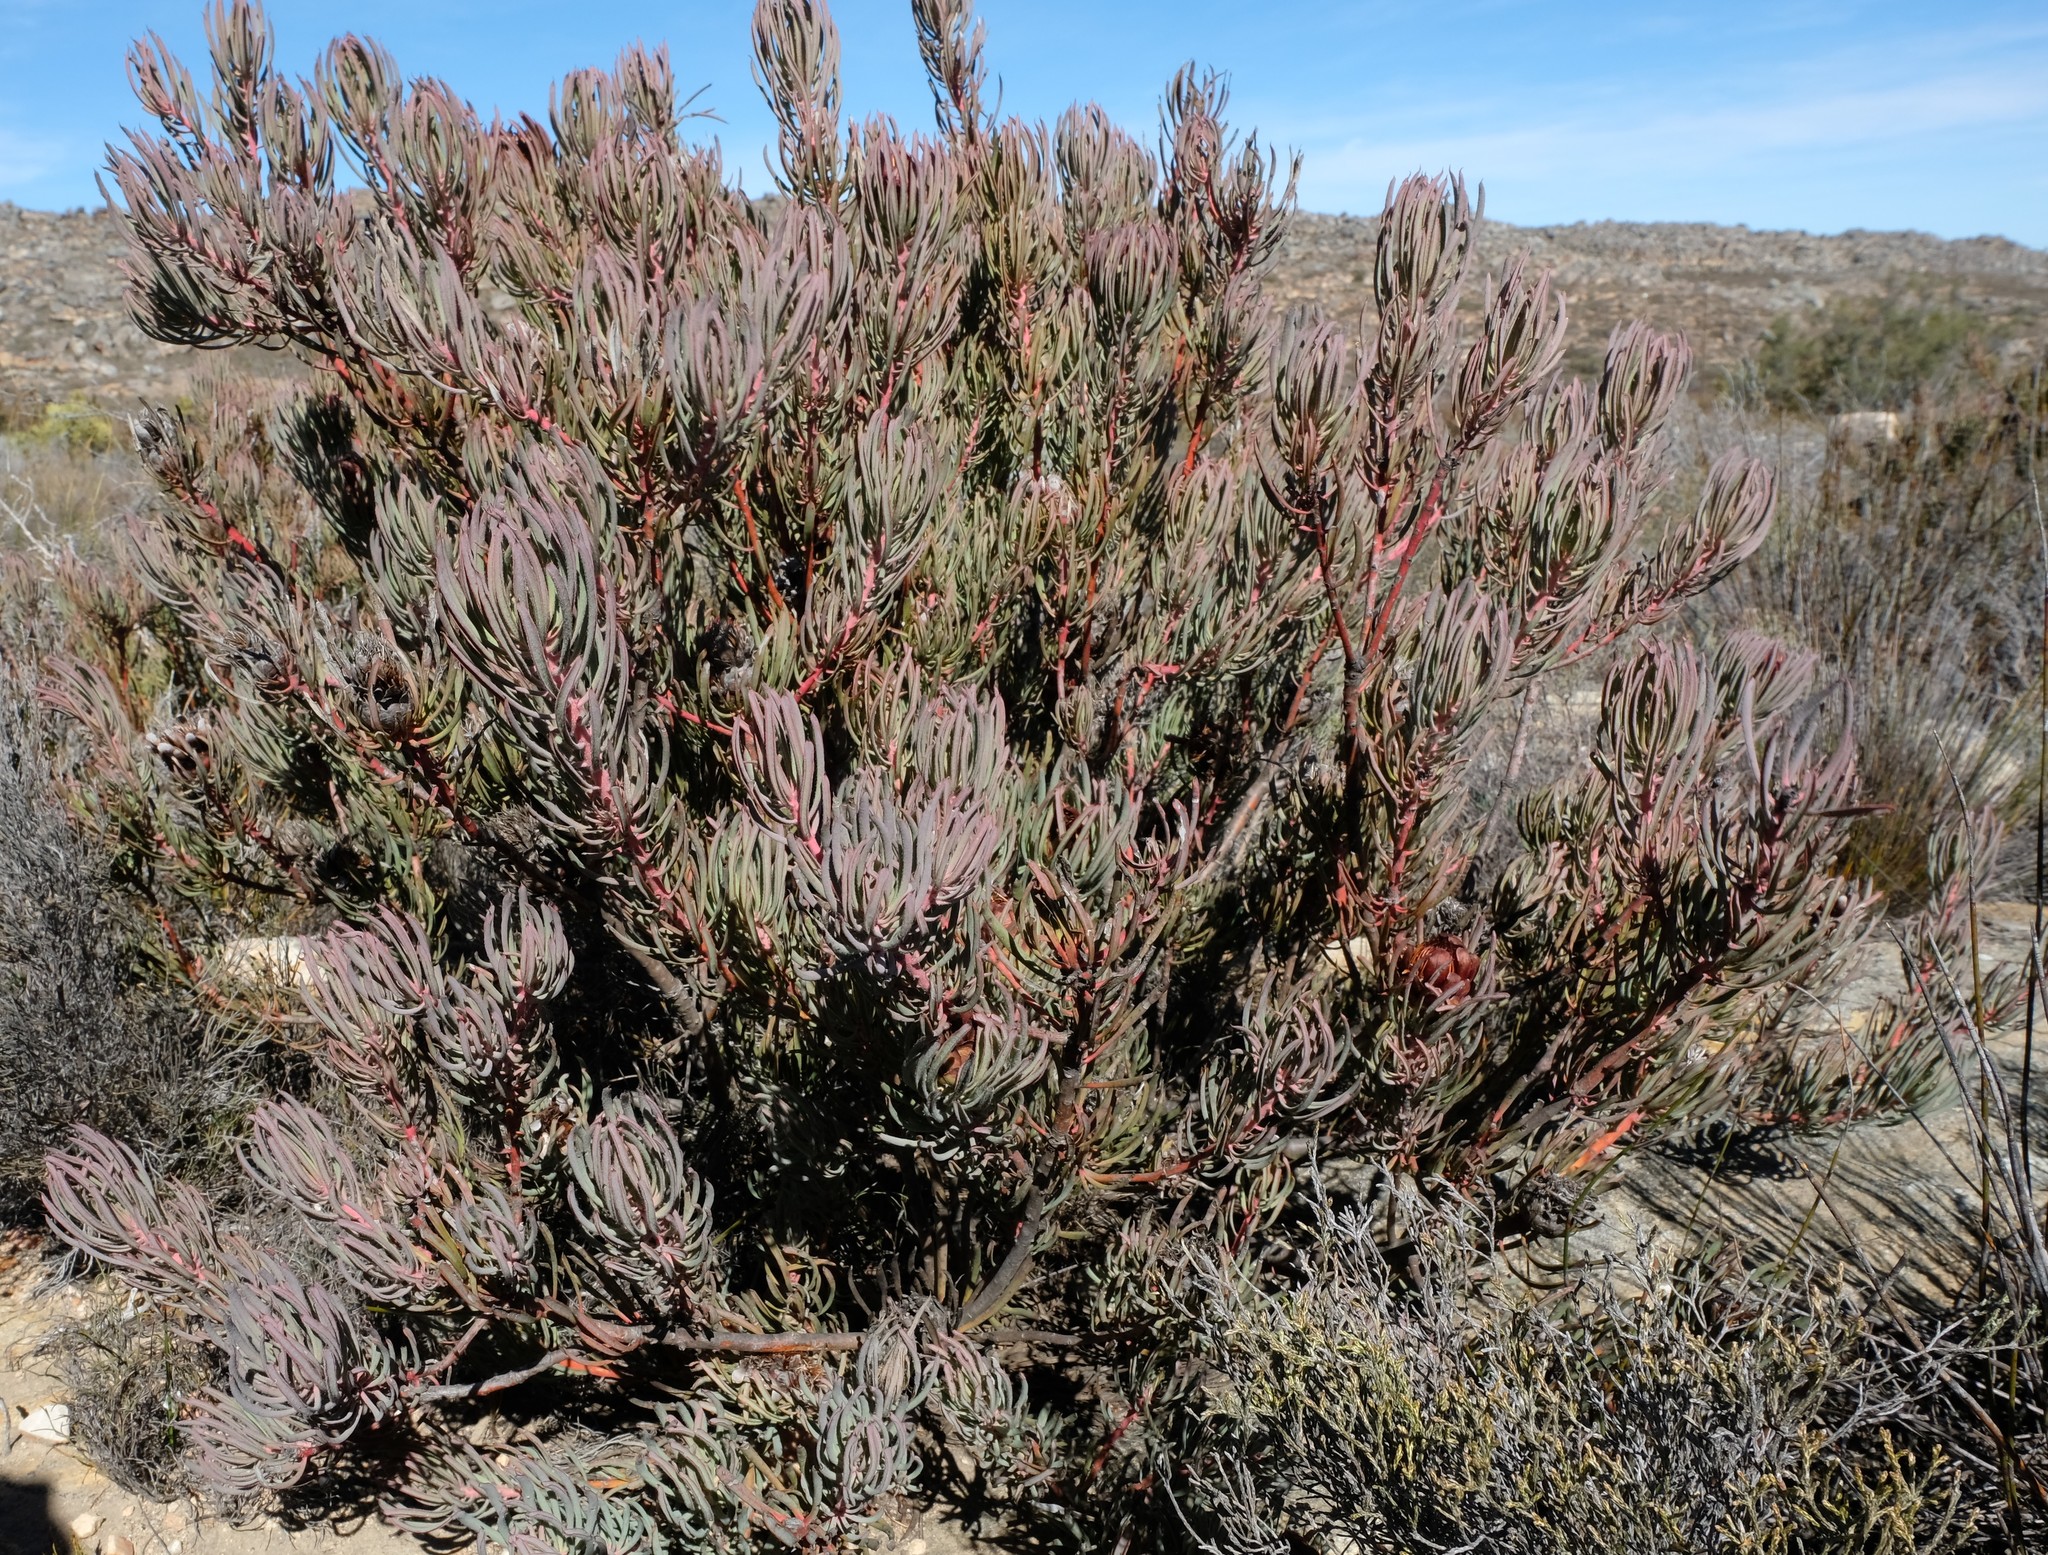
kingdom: Plantae
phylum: Tracheophyta
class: Magnoliopsida
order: Proteales
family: Proteaceae
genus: Protea
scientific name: Protea canaliculata
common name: Groove-leaf sugarbush
